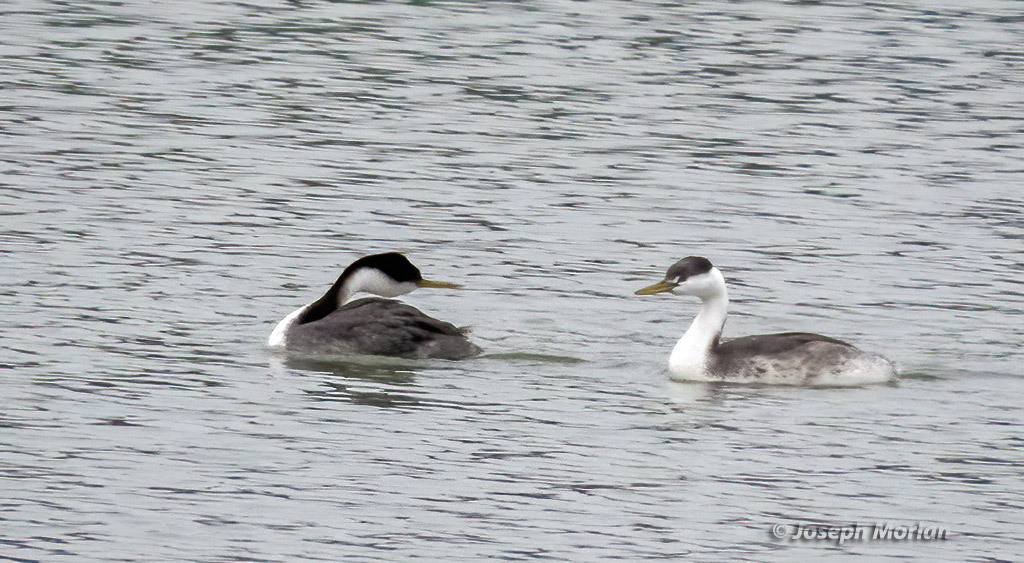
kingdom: Animalia
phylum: Chordata
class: Aves
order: Podicipediformes
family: Podicipedidae
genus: Aechmophorus
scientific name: Aechmophorus occidentalis
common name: Western grebe
